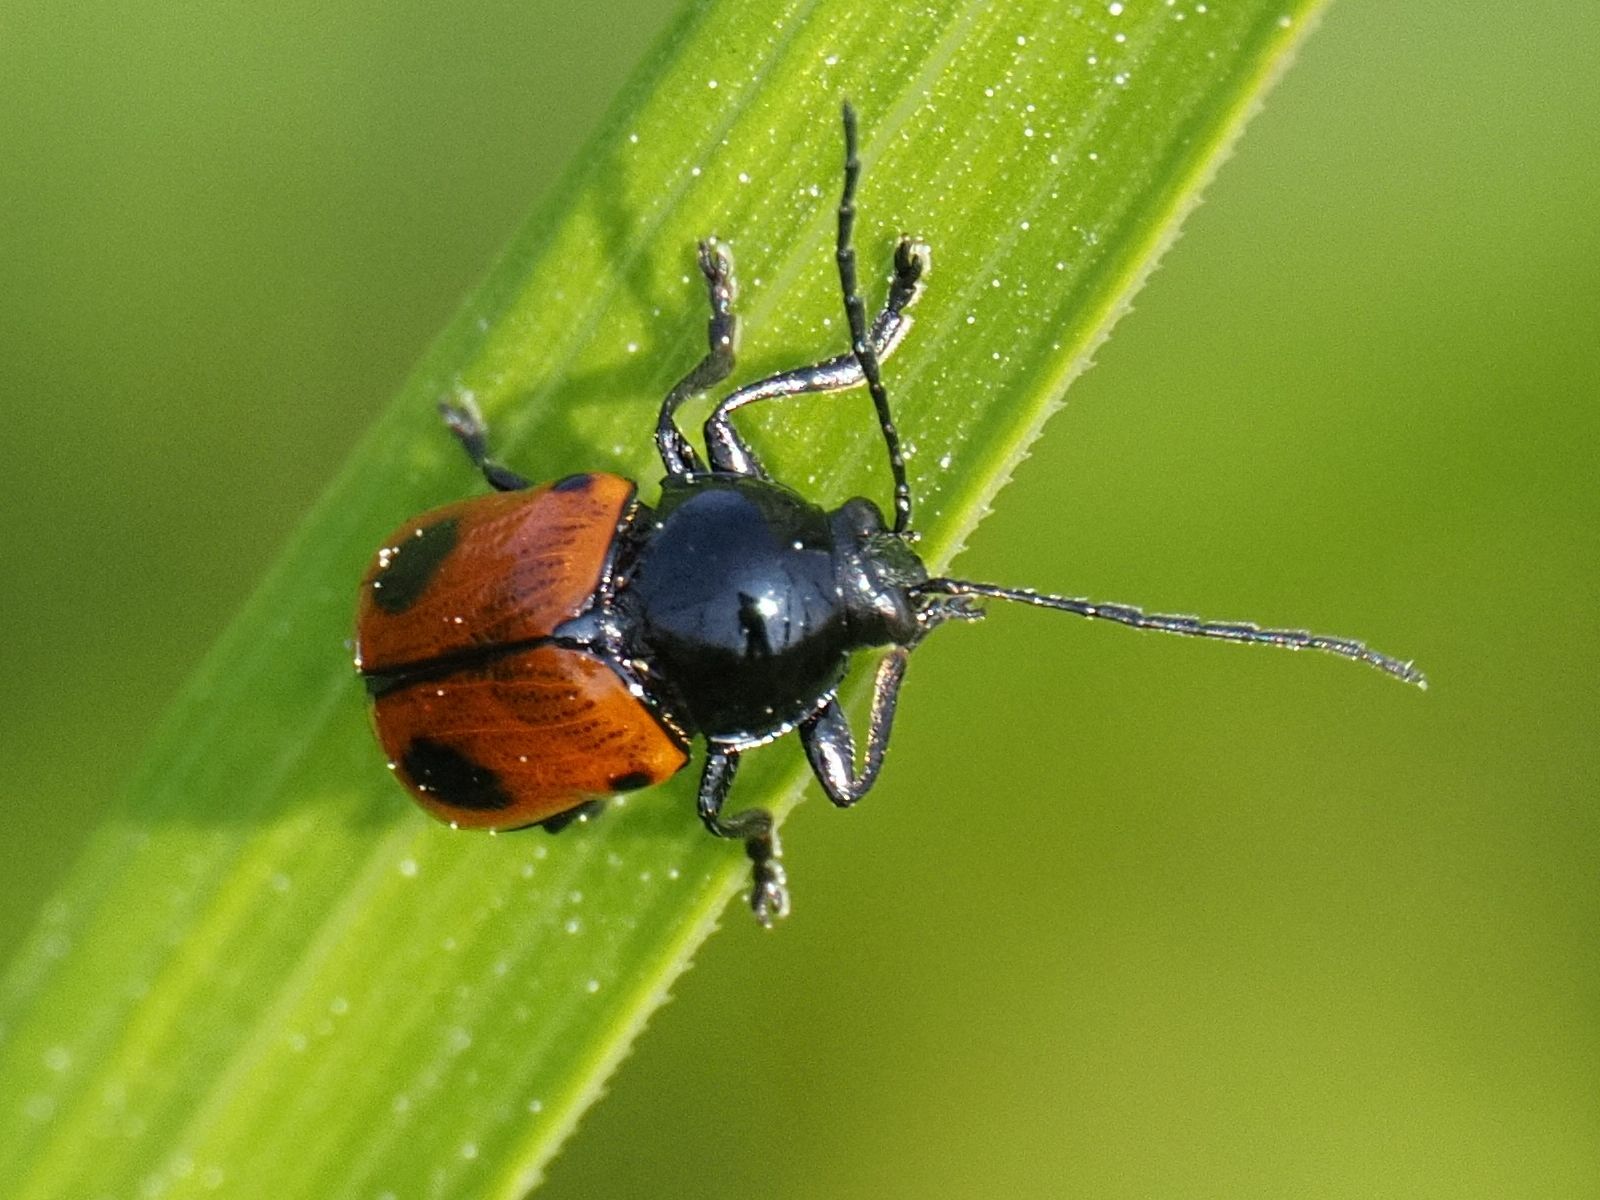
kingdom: Animalia
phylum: Arthropoda
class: Insecta
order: Coleoptera
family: Chrysomelidae
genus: Chiridopsis
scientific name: Chiridopsis bipunctata
